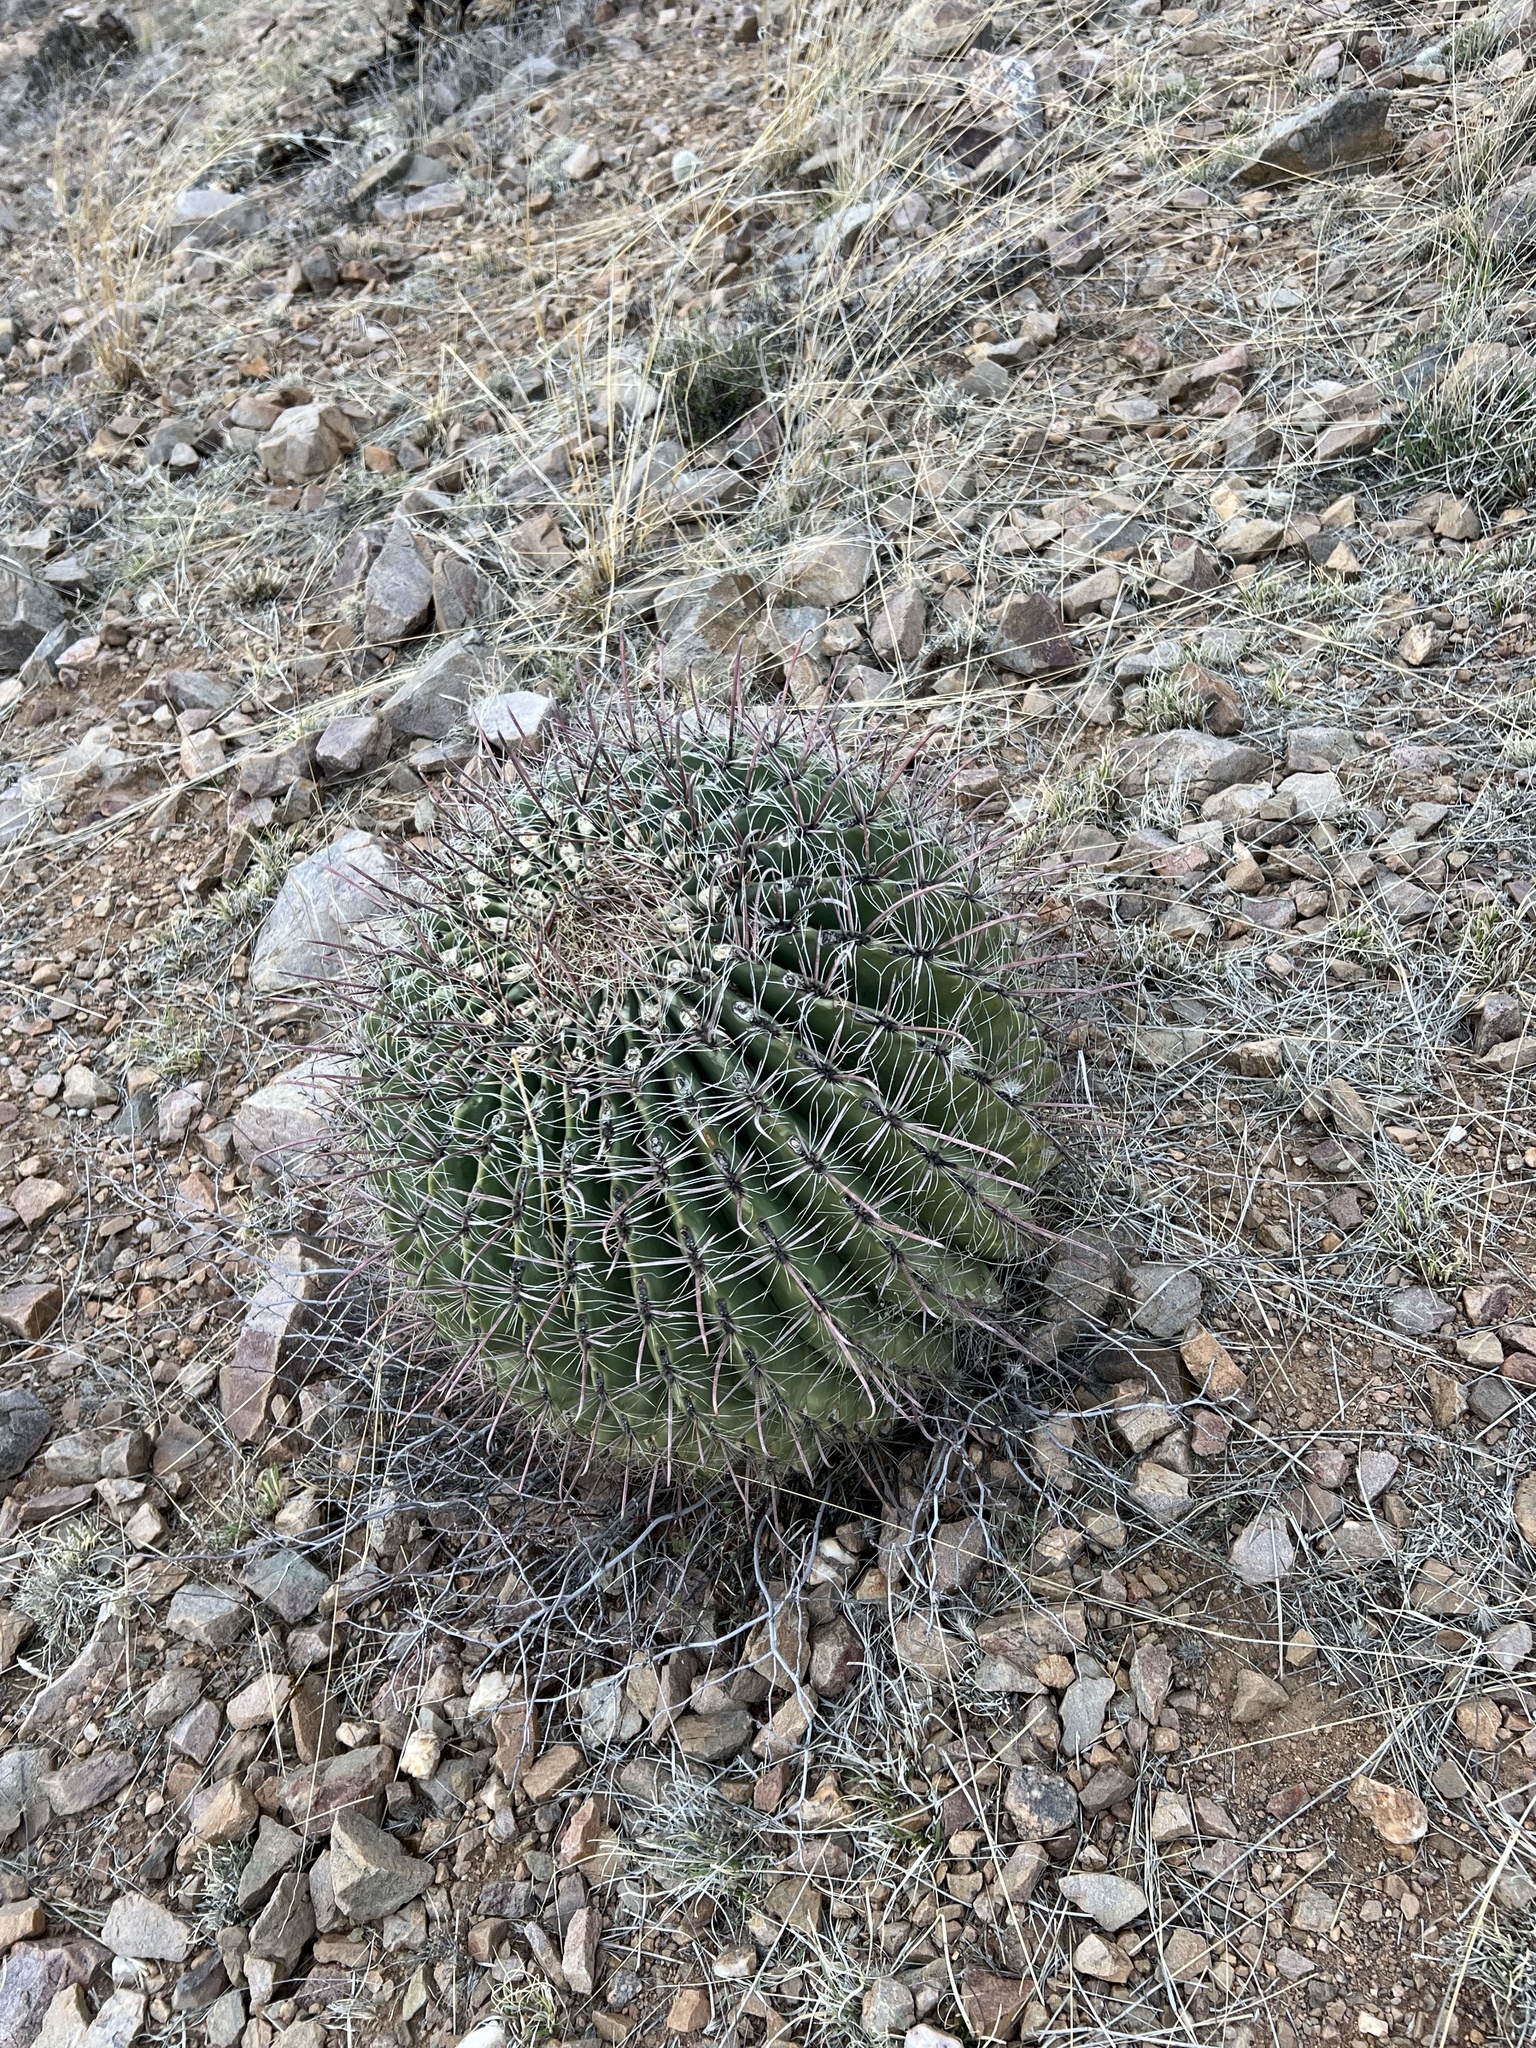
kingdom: Plantae
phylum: Tracheophyta
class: Magnoliopsida
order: Caryophyllales
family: Cactaceae
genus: Ferocactus
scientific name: Ferocactus wislizeni
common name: Candy barrel cactus
